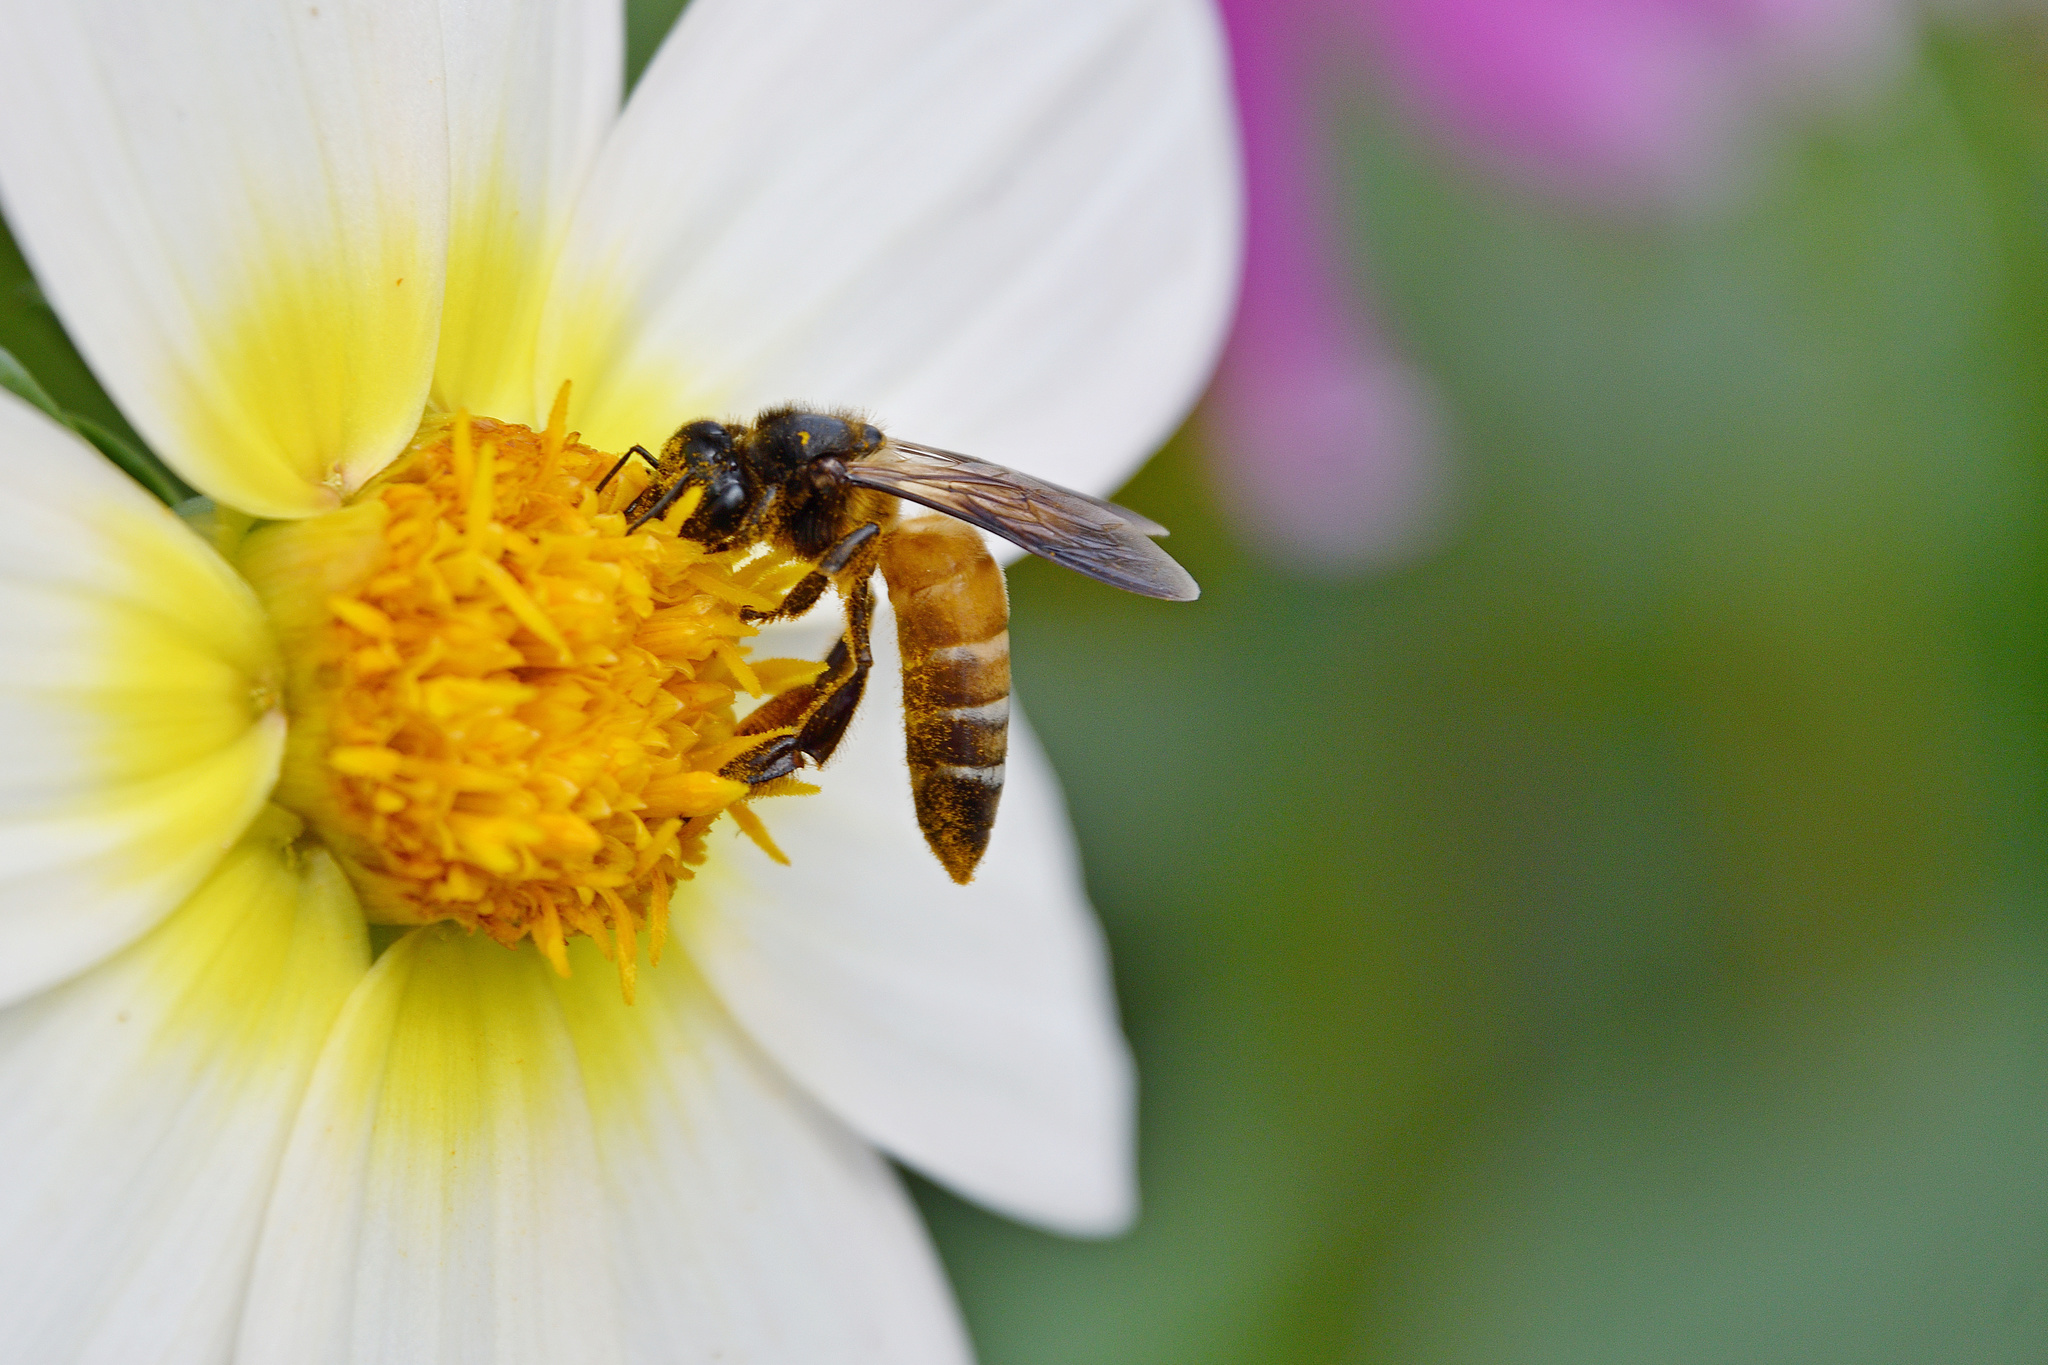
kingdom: Animalia
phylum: Arthropoda
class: Insecta
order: Hymenoptera
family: Apidae
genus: Apis
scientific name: Apis dorsata
